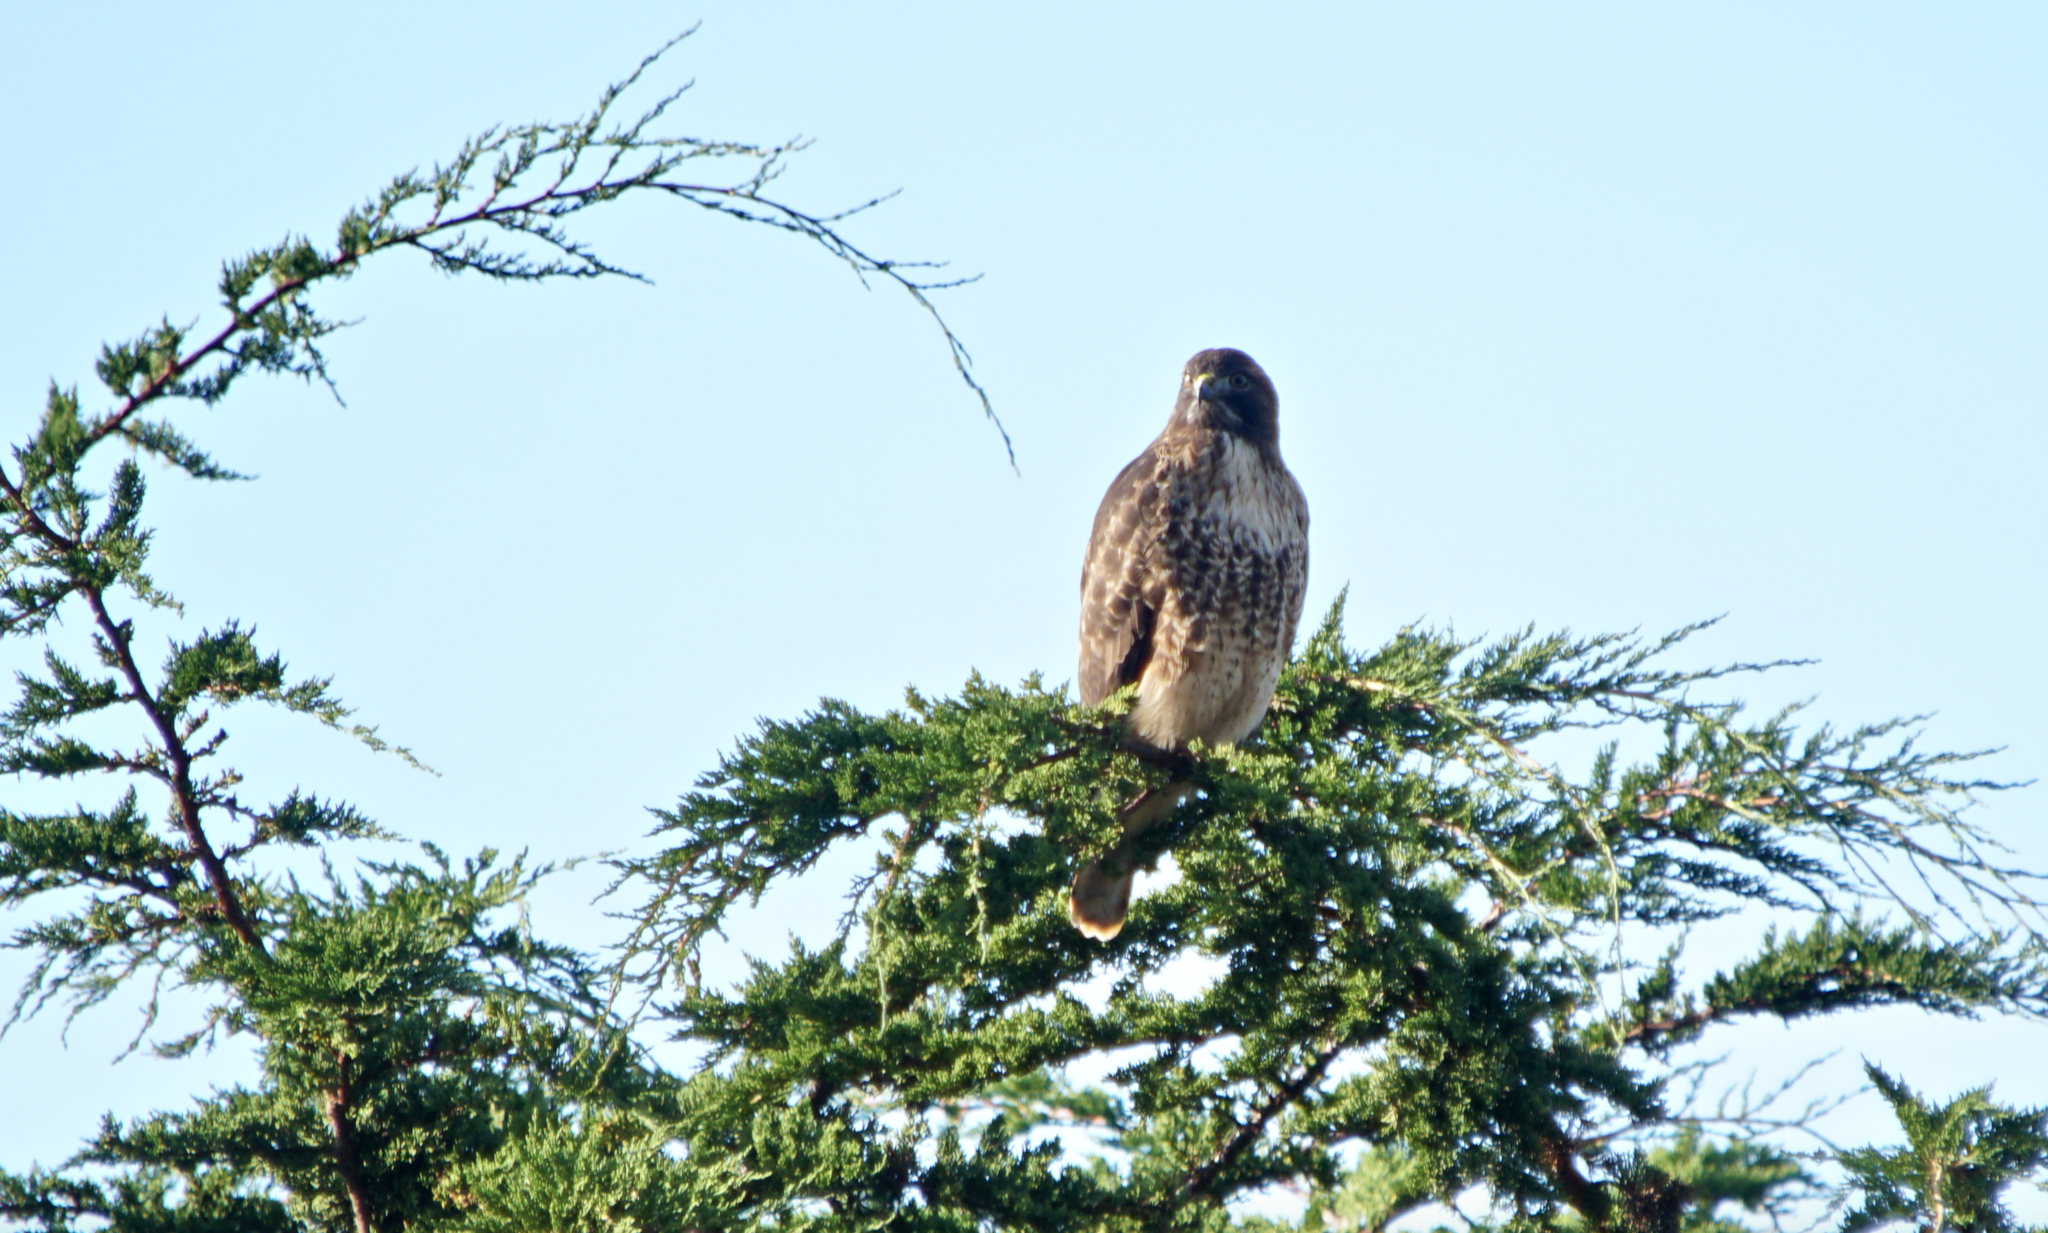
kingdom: Animalia
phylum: Chordata
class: Aves
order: Accipitriformes
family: Accipitridae
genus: Buteo
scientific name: Buteo jamaicensis
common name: Red-tailed hawk
